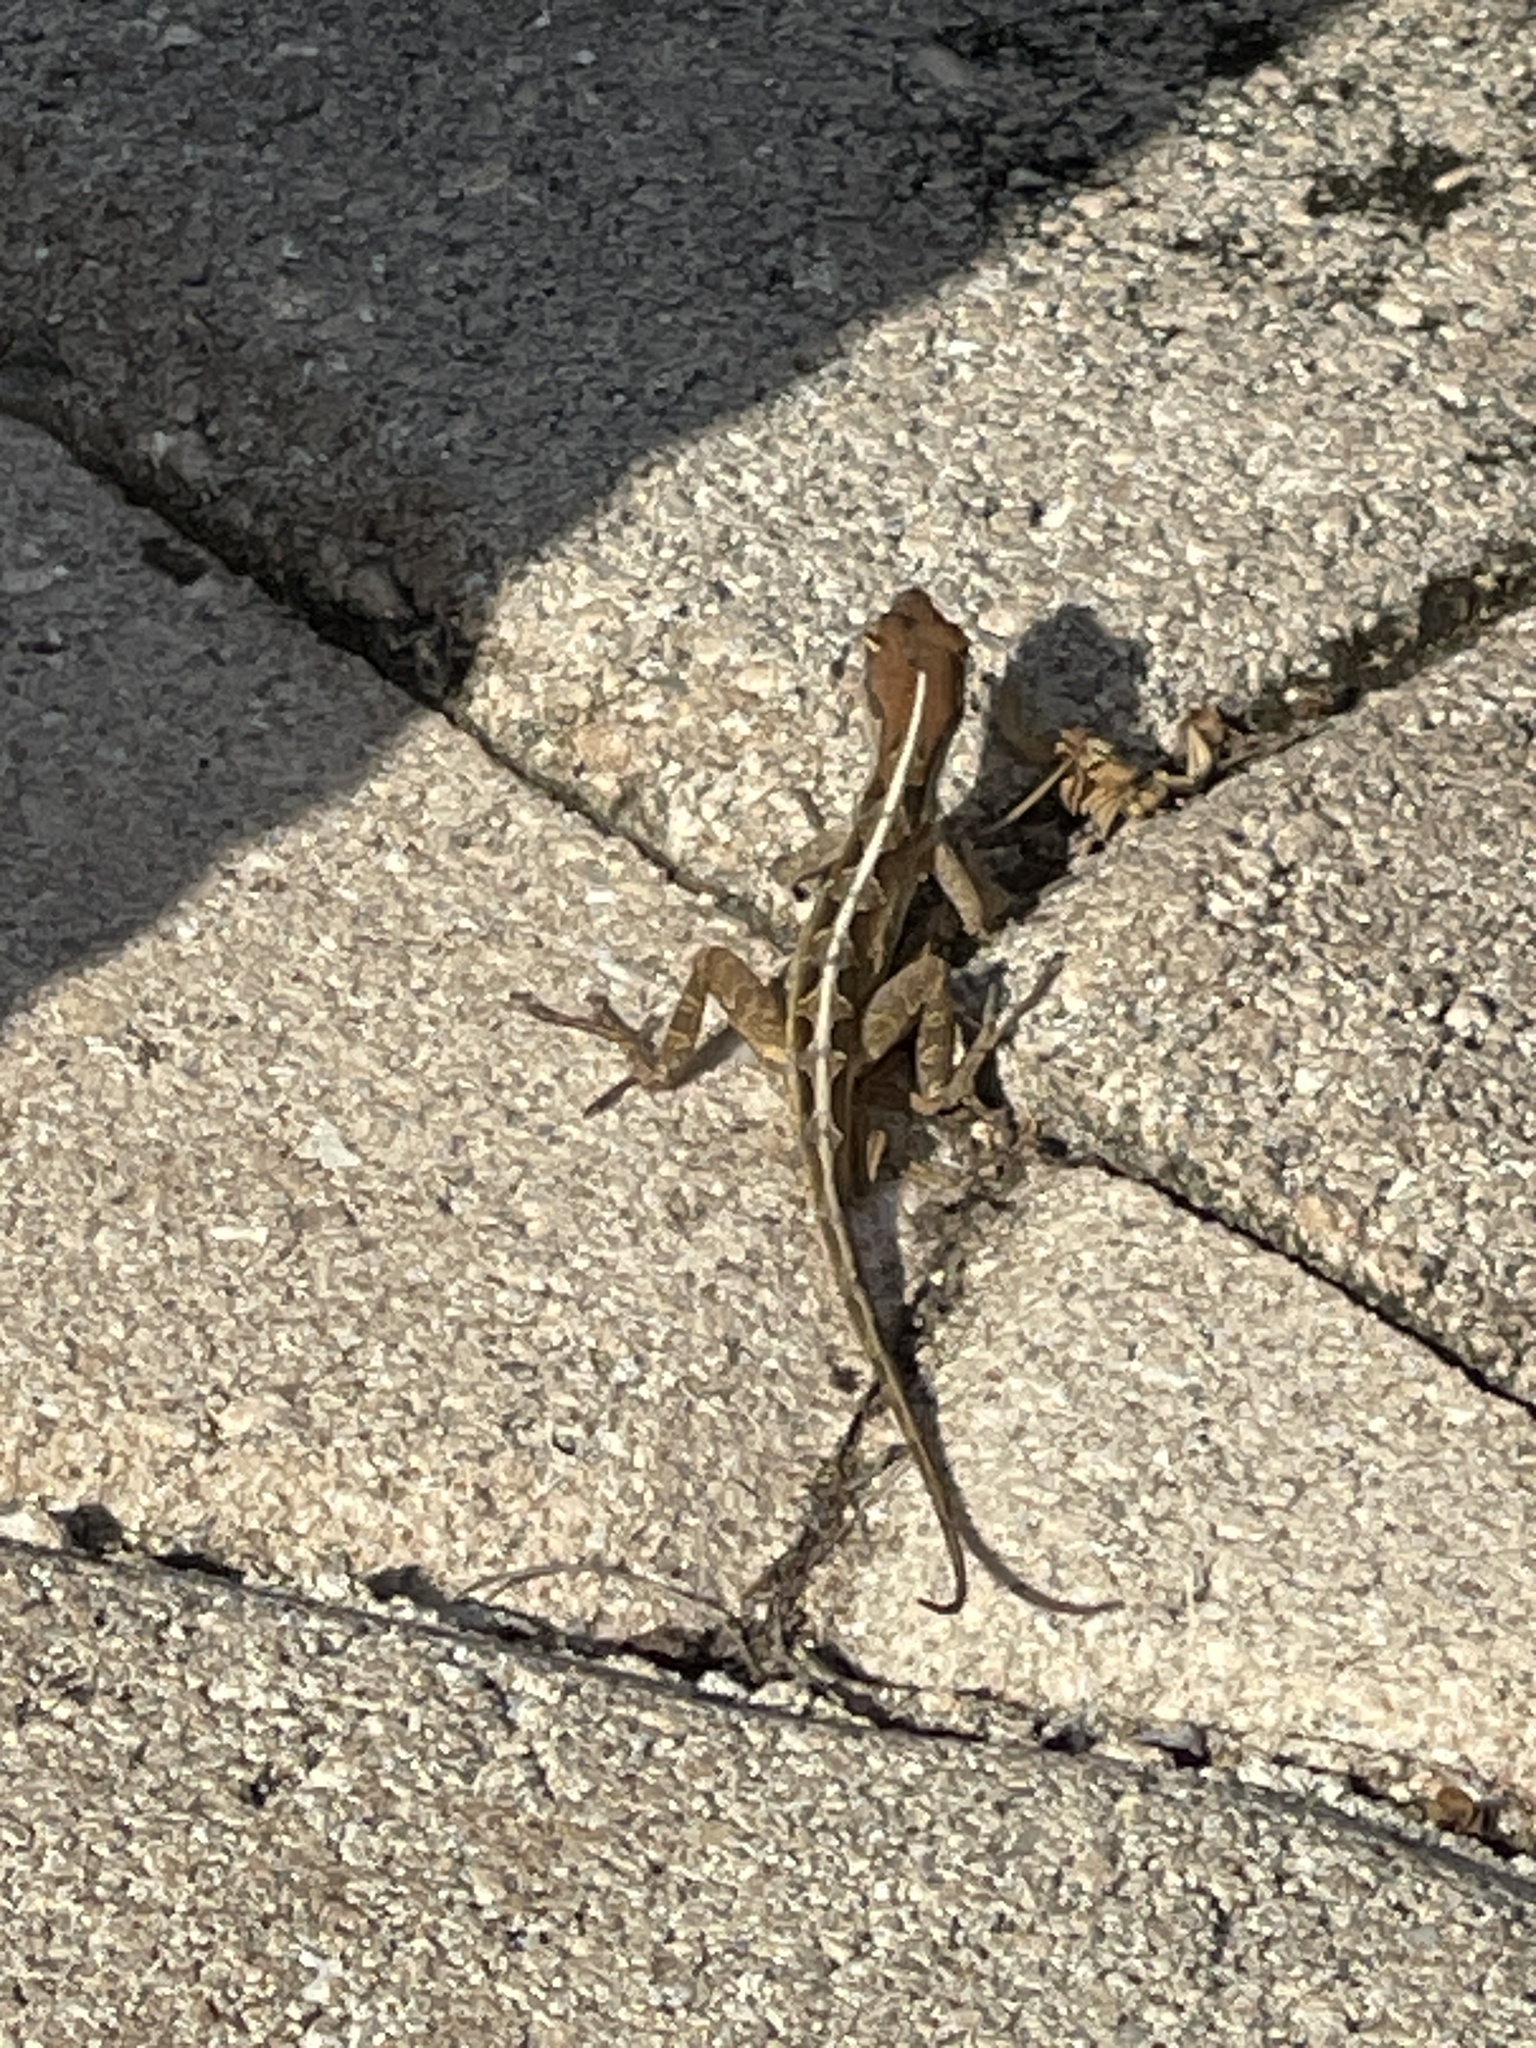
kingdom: Animalia
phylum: Chordata
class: Squamata
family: Dactyloidae
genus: Anolis
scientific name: Anolis sagrei
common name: Brown anole
